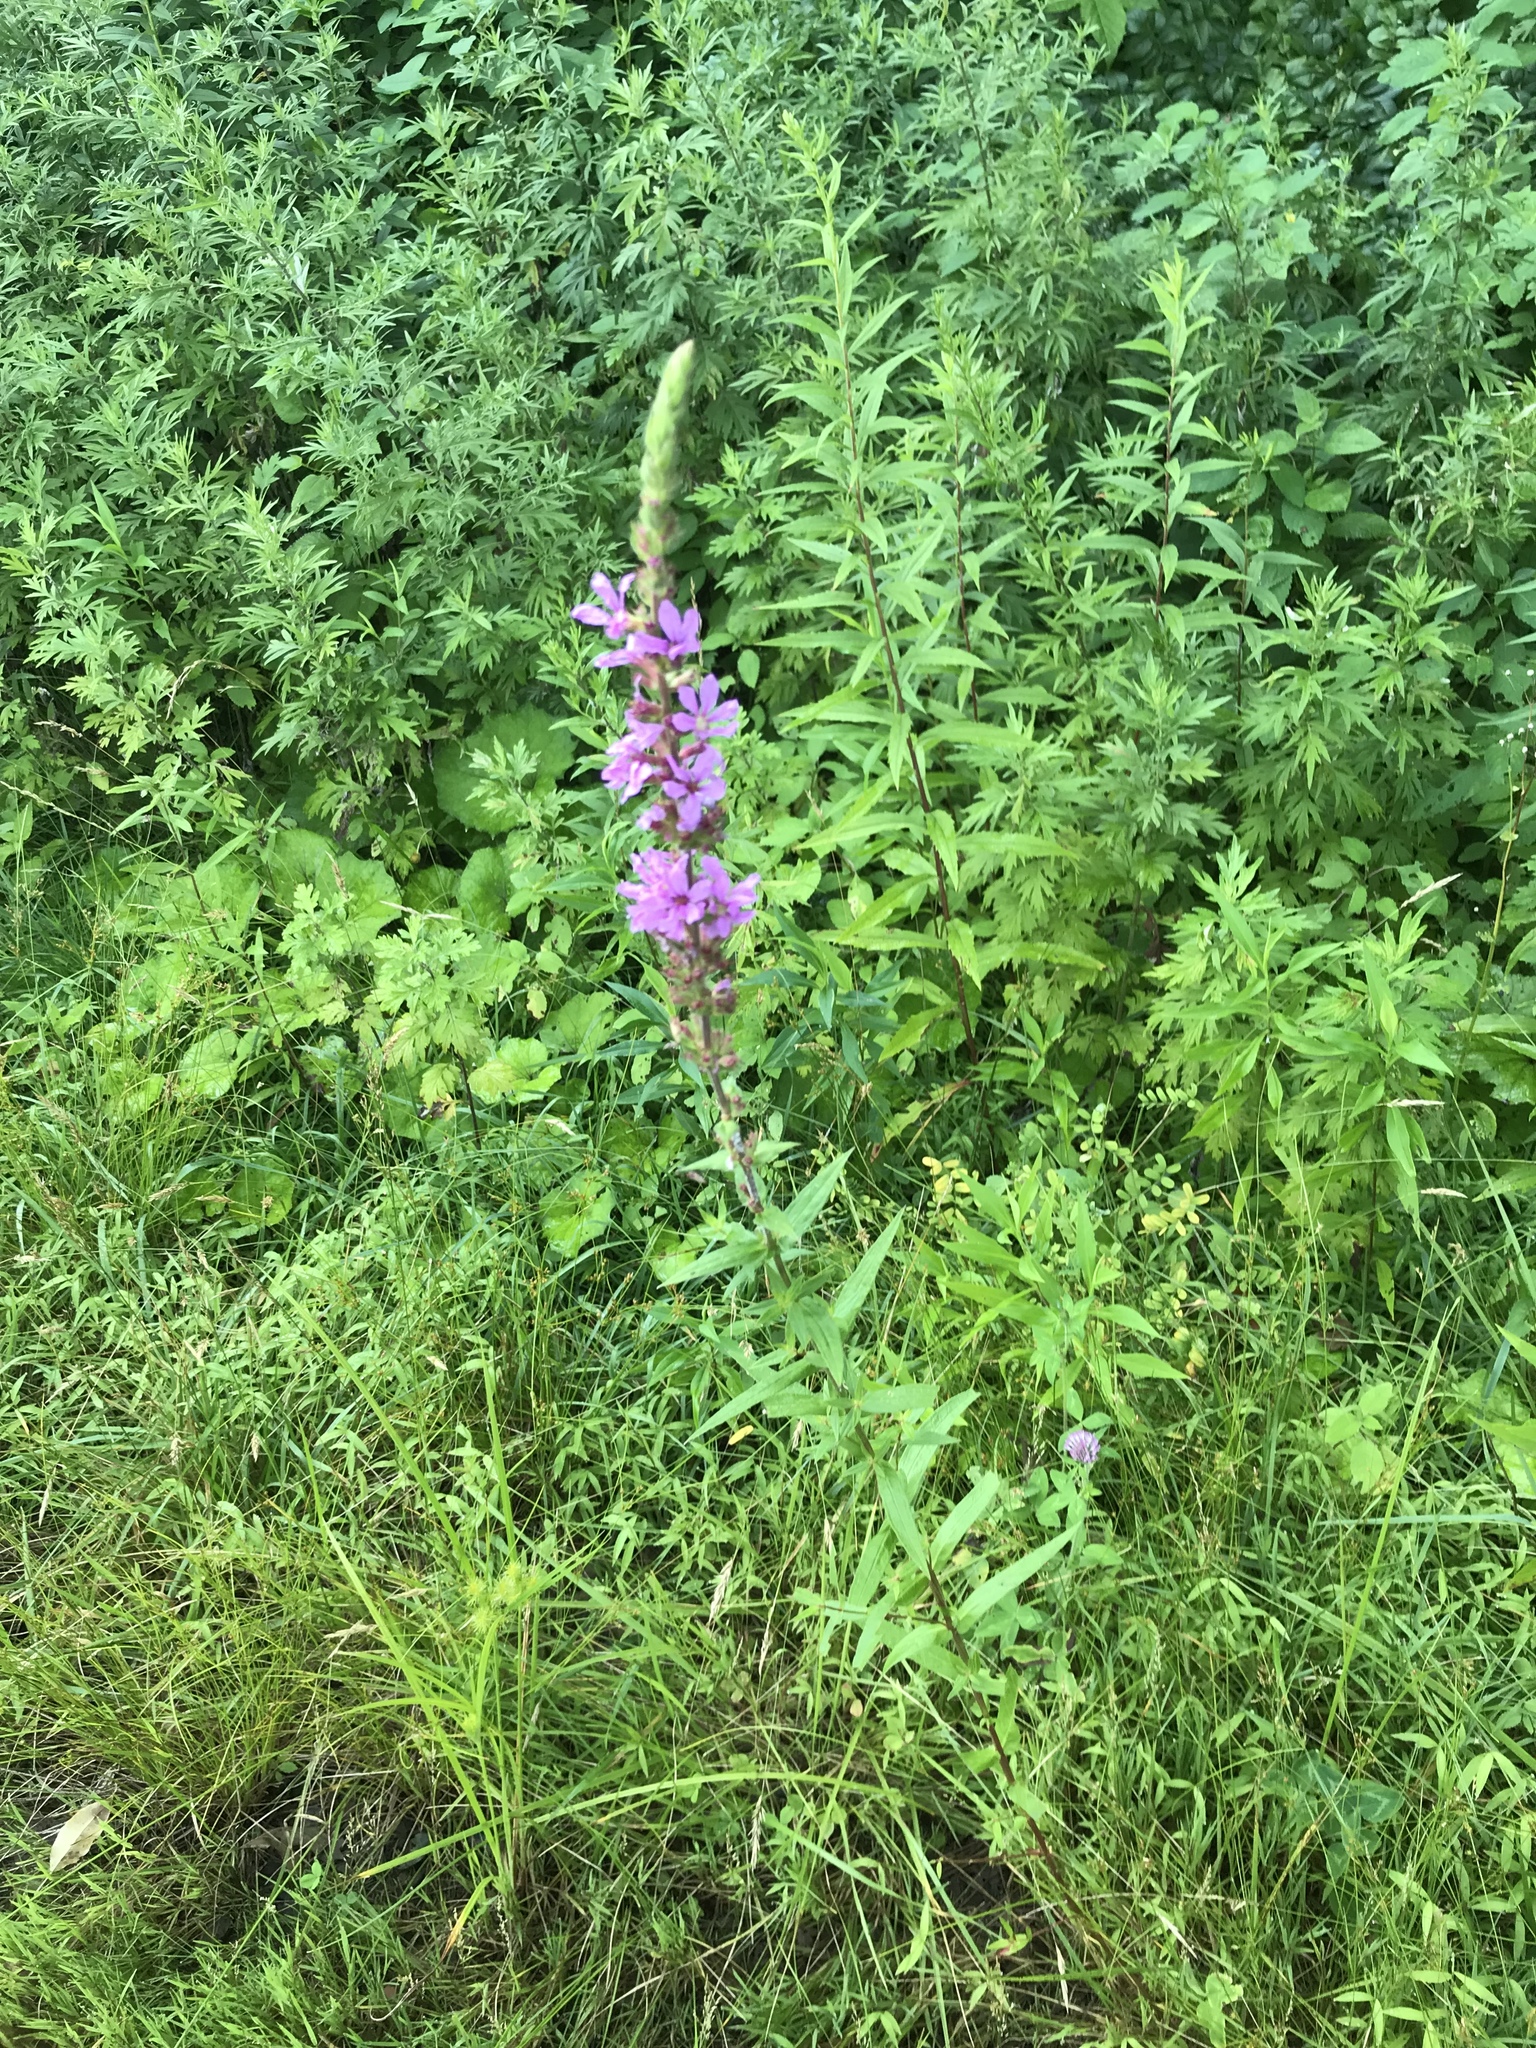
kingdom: Plantae
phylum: Tracheophyta
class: Magnoliopsida
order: Myrtales
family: Lythraceae
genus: Lythrum
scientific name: Lythrum salicaria
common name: Purple loosestrife
